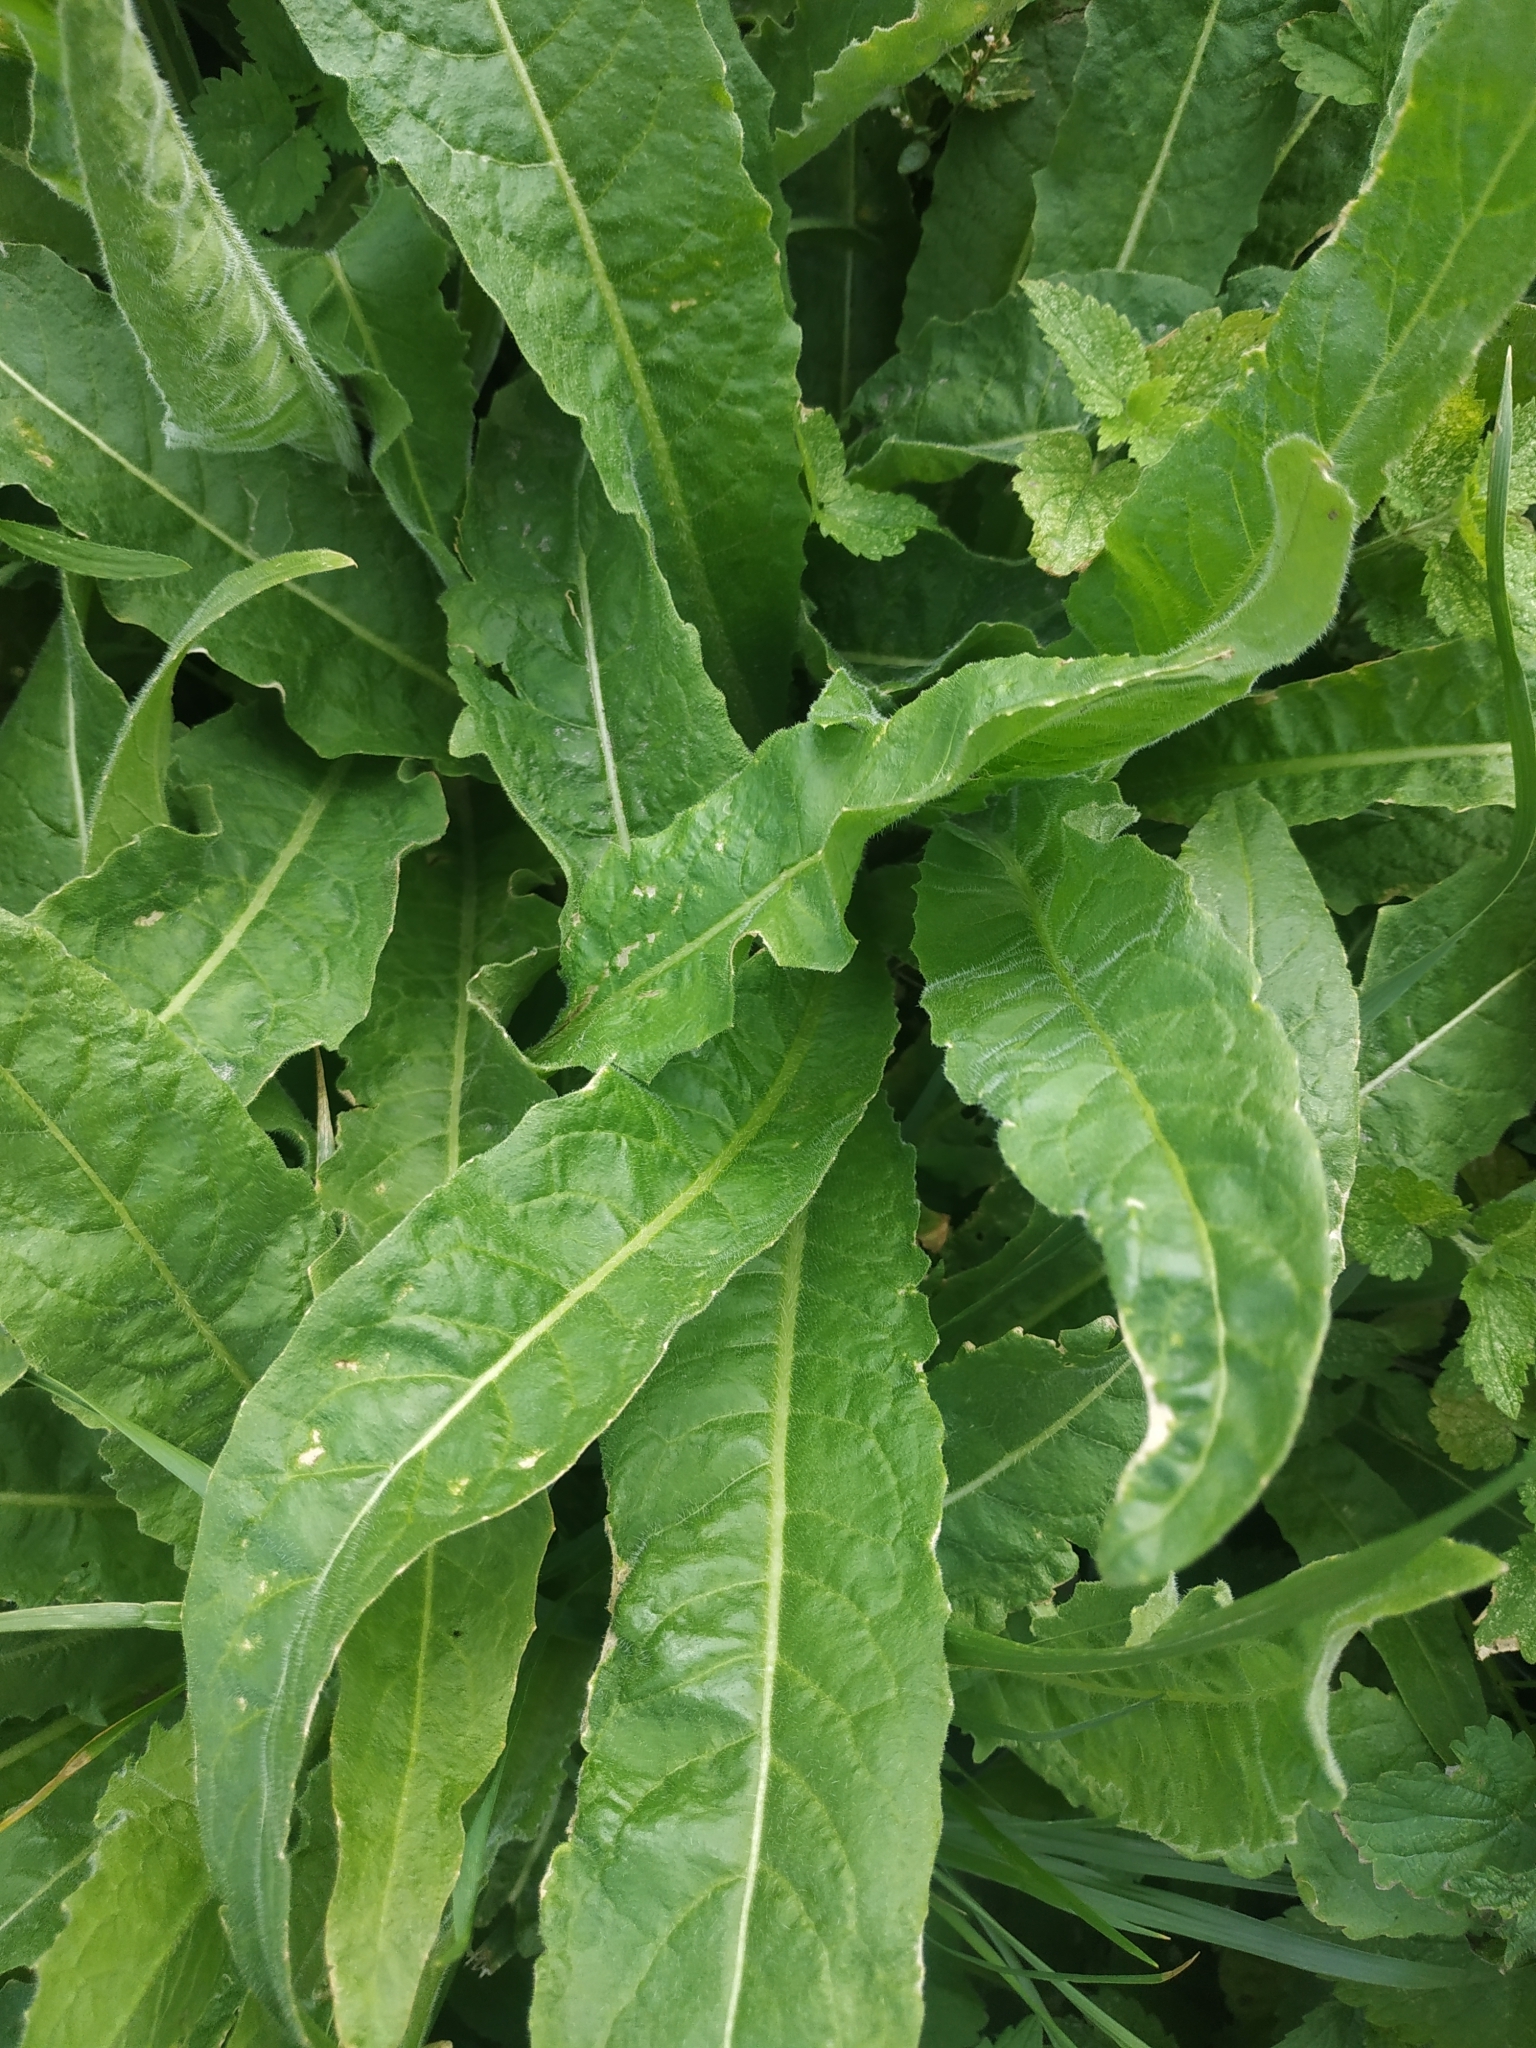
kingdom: Plantae
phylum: Tracheophyta
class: Magnoliopsida
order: Brassicales
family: Brassicaceae
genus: Bunias
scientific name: Bunias orientalis
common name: Warty-cabbage
